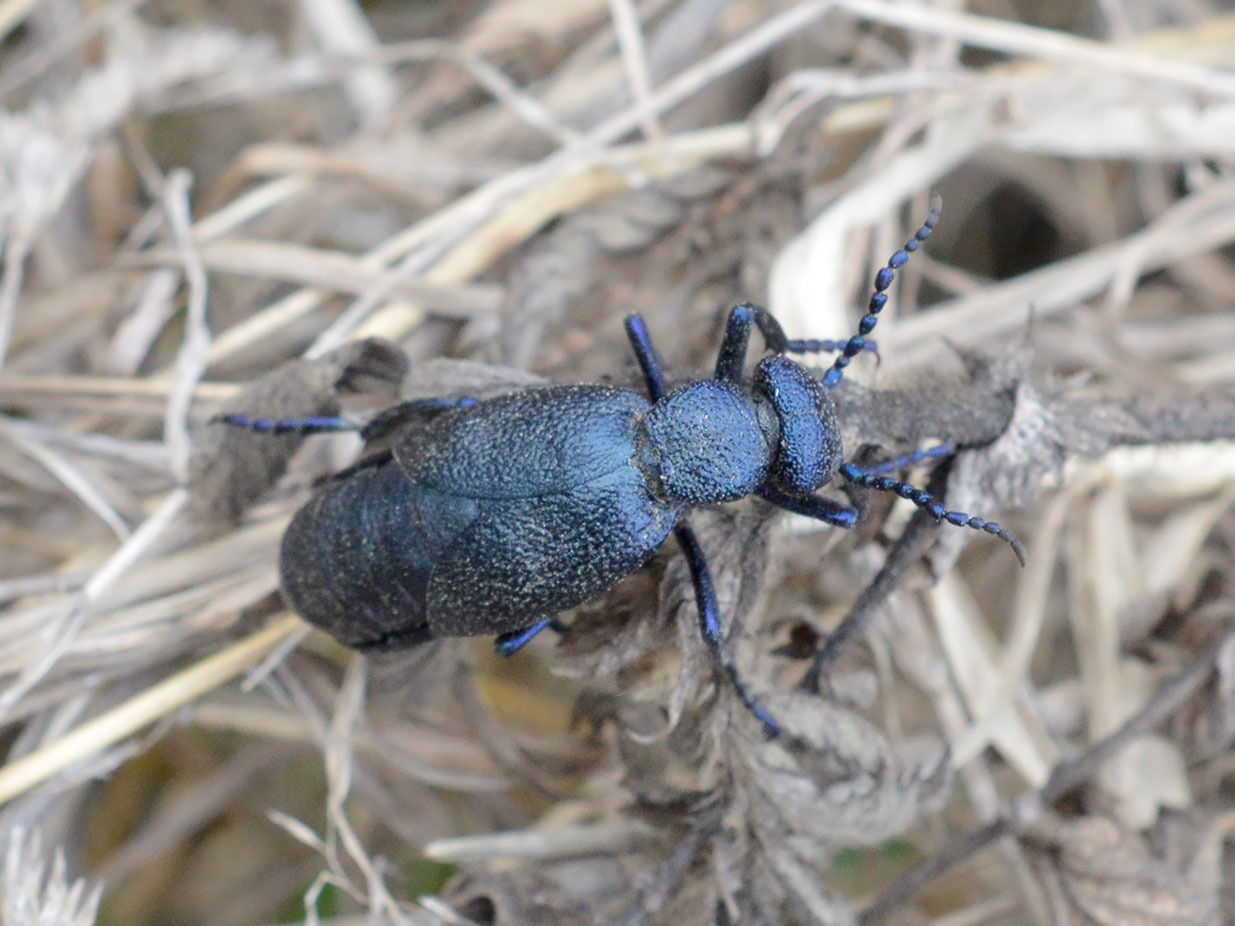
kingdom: Animalia
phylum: Arthropoda
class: Insecta
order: Coleoptera
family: Meloidae
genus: Meloe
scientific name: Meloe proscarabaeus
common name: Black oil-beetle
